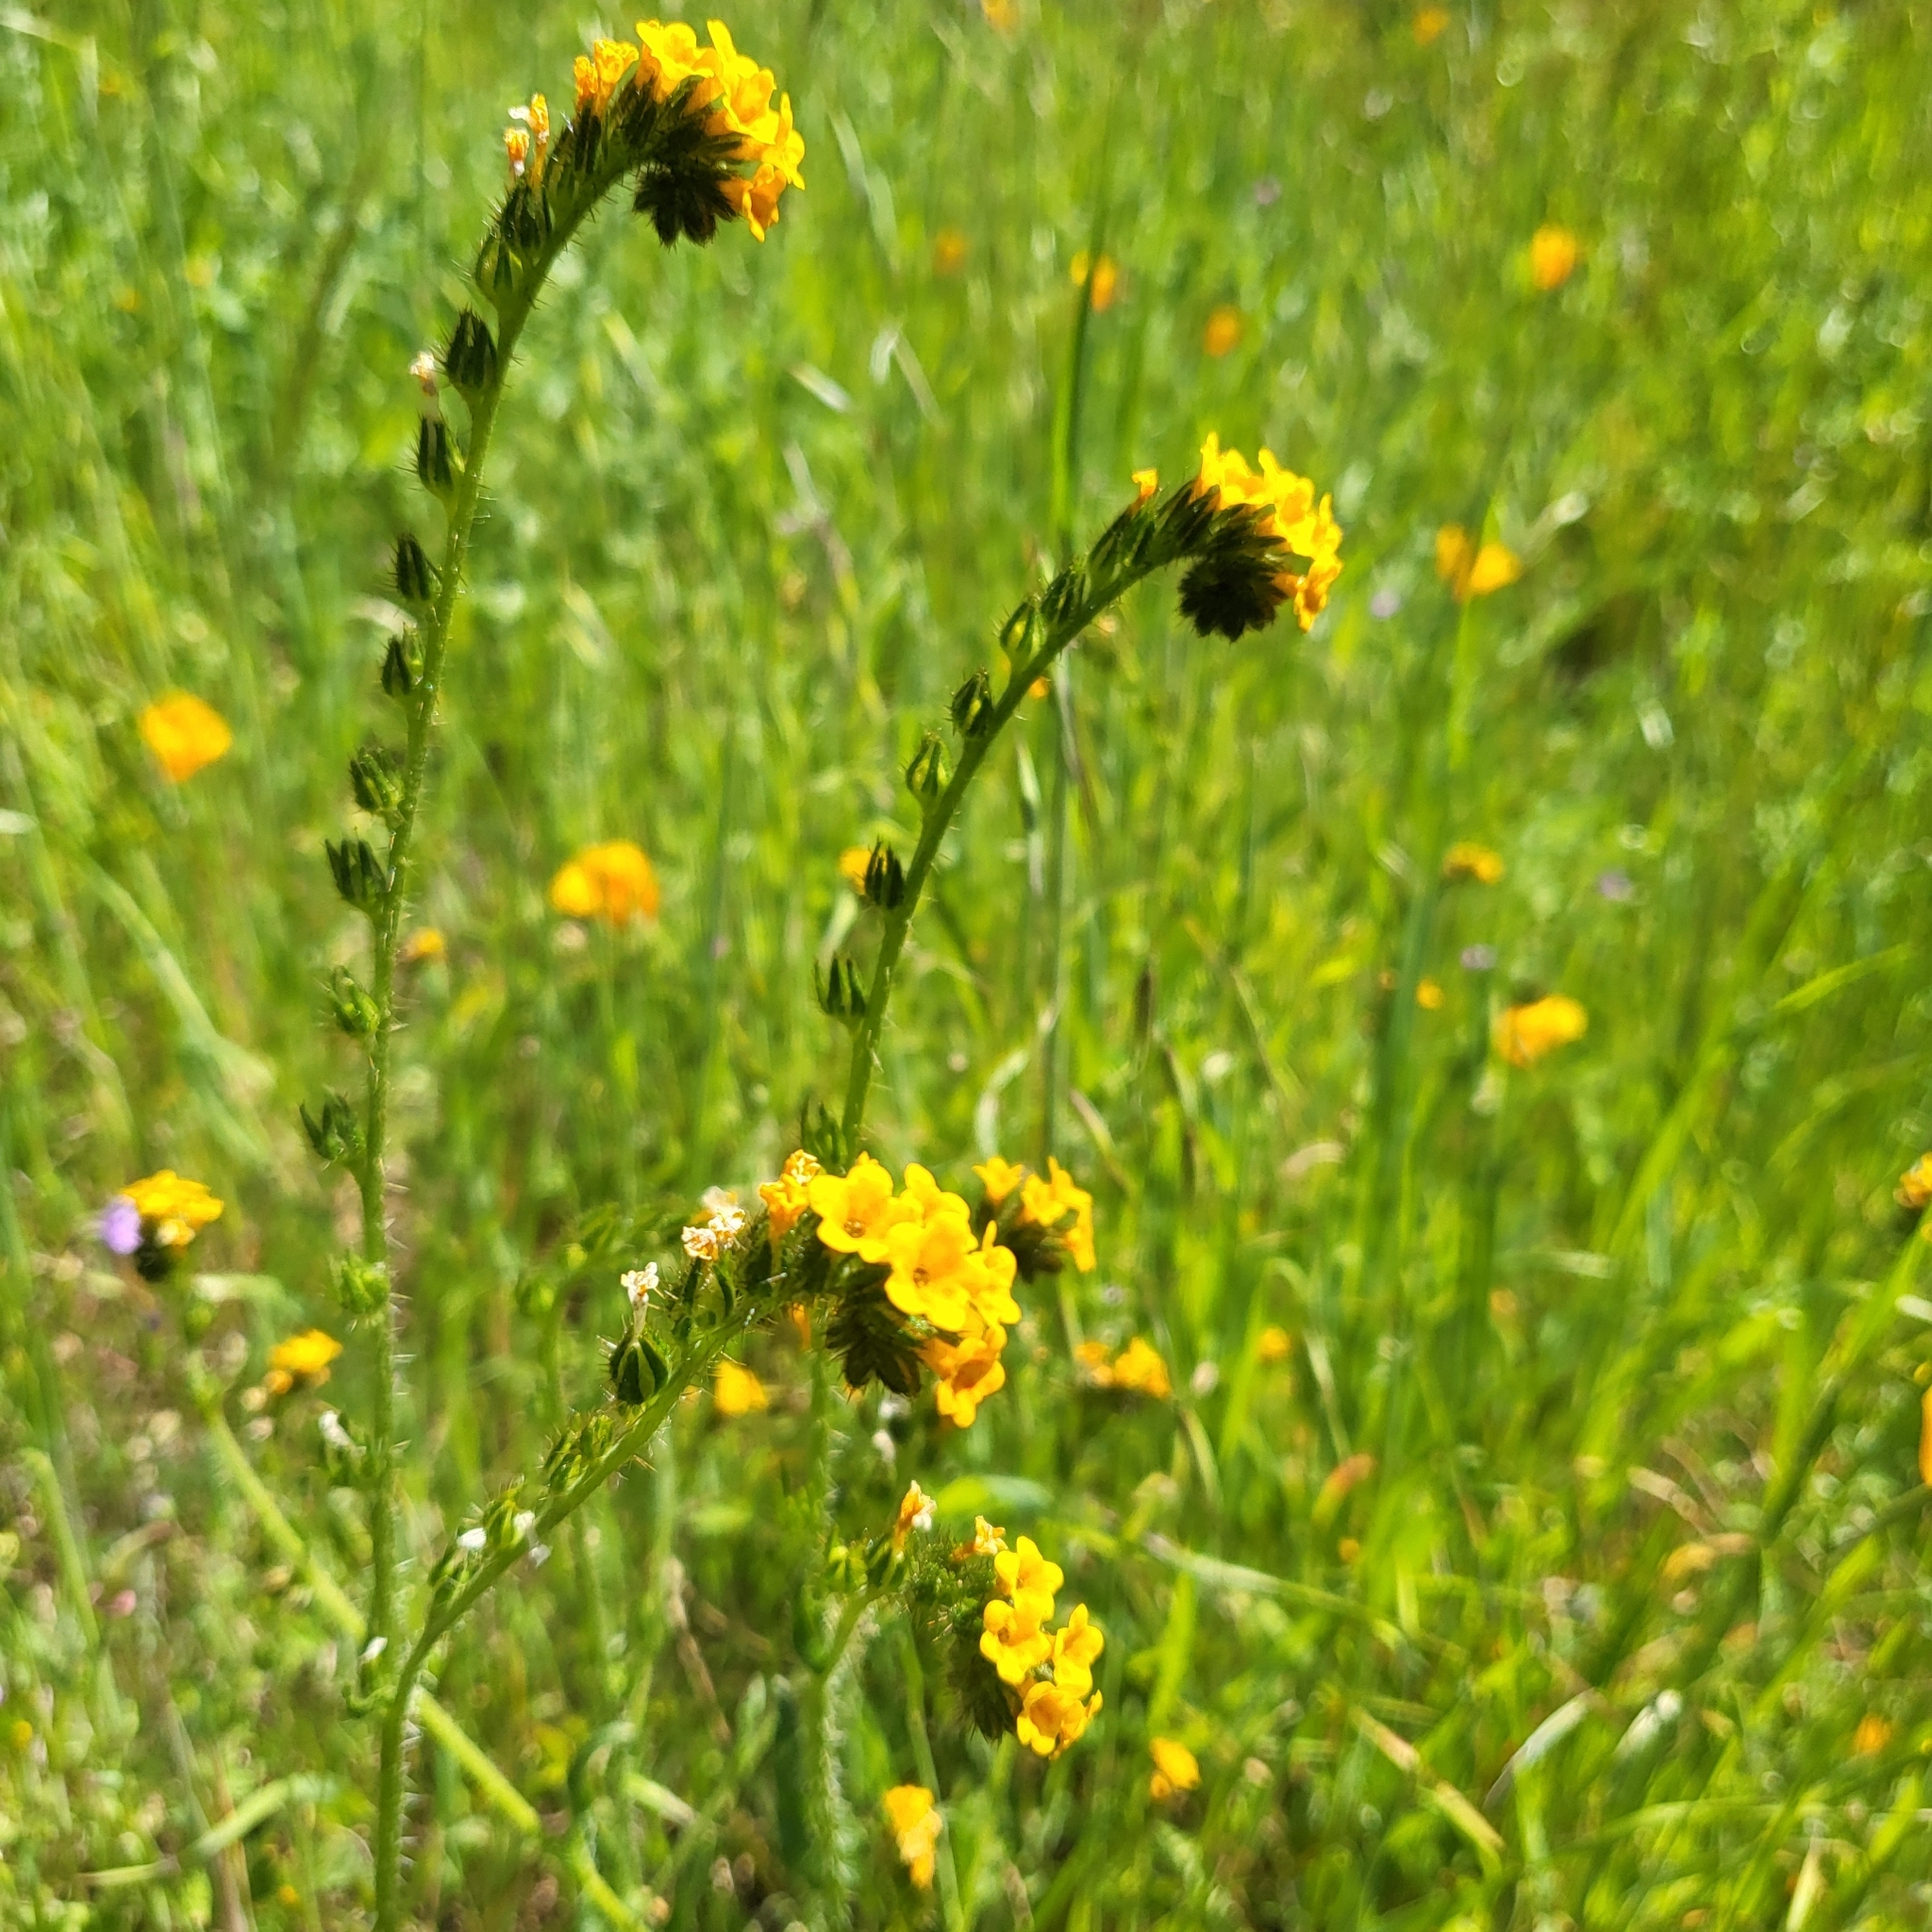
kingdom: Plantae
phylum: Tracheophyta
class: Magnoliopsida
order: Boraginales
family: Boraginaceae
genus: Amsinckia
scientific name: Amsinckia menziesii
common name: Menzies' fiddleneck
